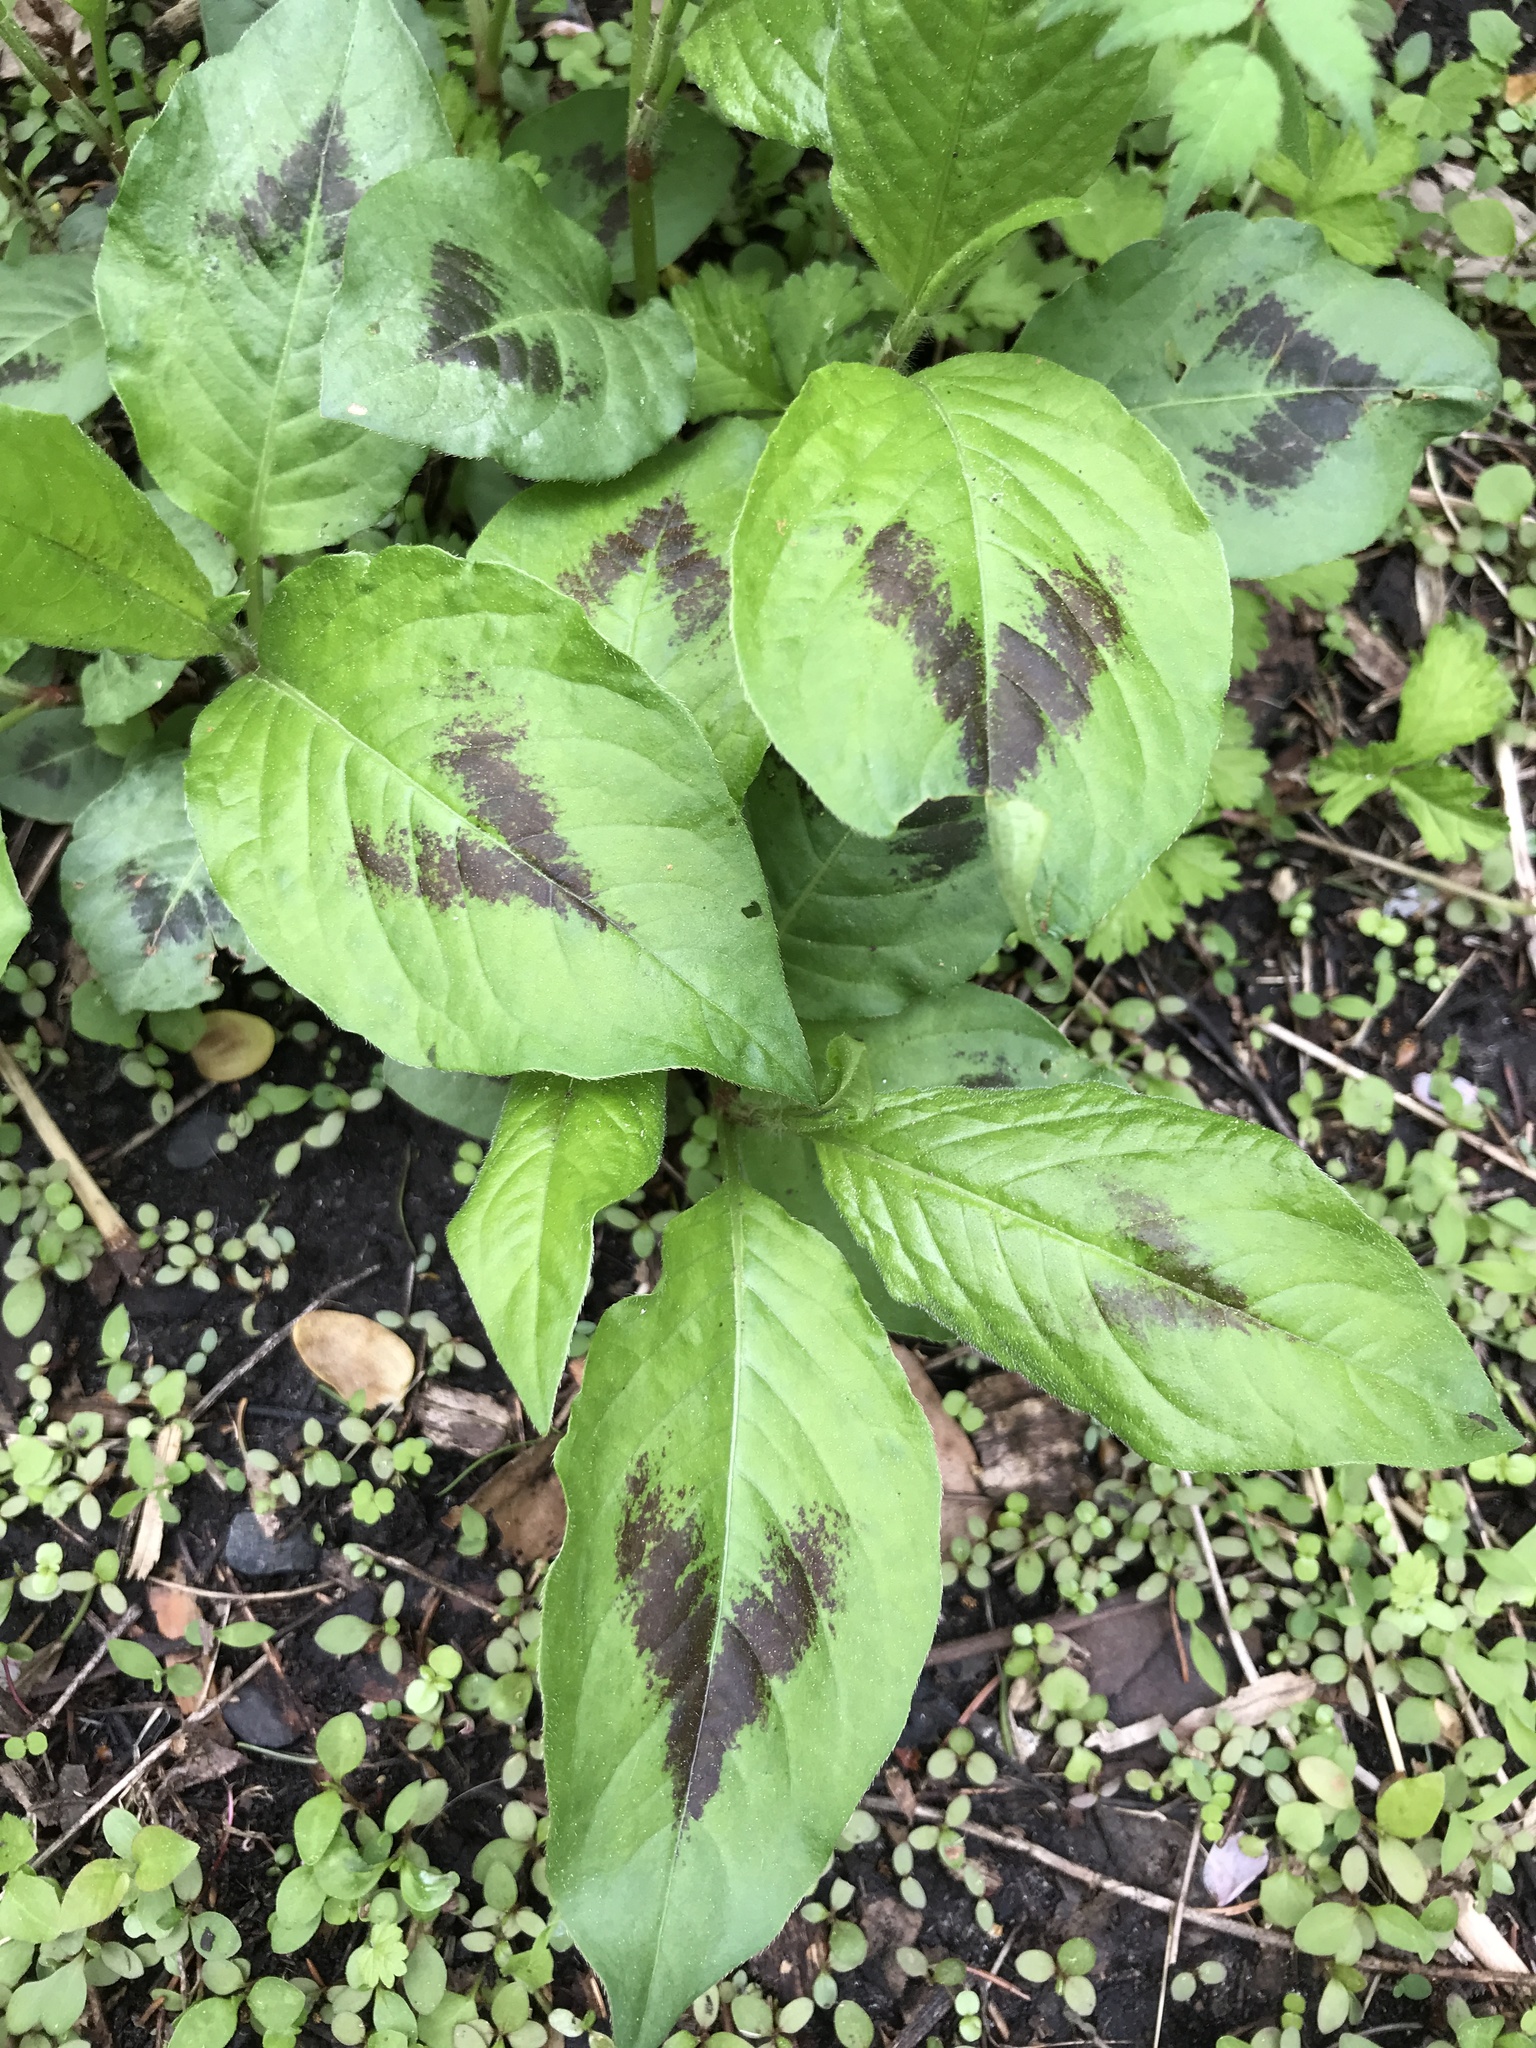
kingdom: Plantae
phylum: Tracheophyta
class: Magnoliopsida
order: Caryophyllales
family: Polygonaceae
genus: Persicaria
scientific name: Persicaria virginiana
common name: Jumpseed
